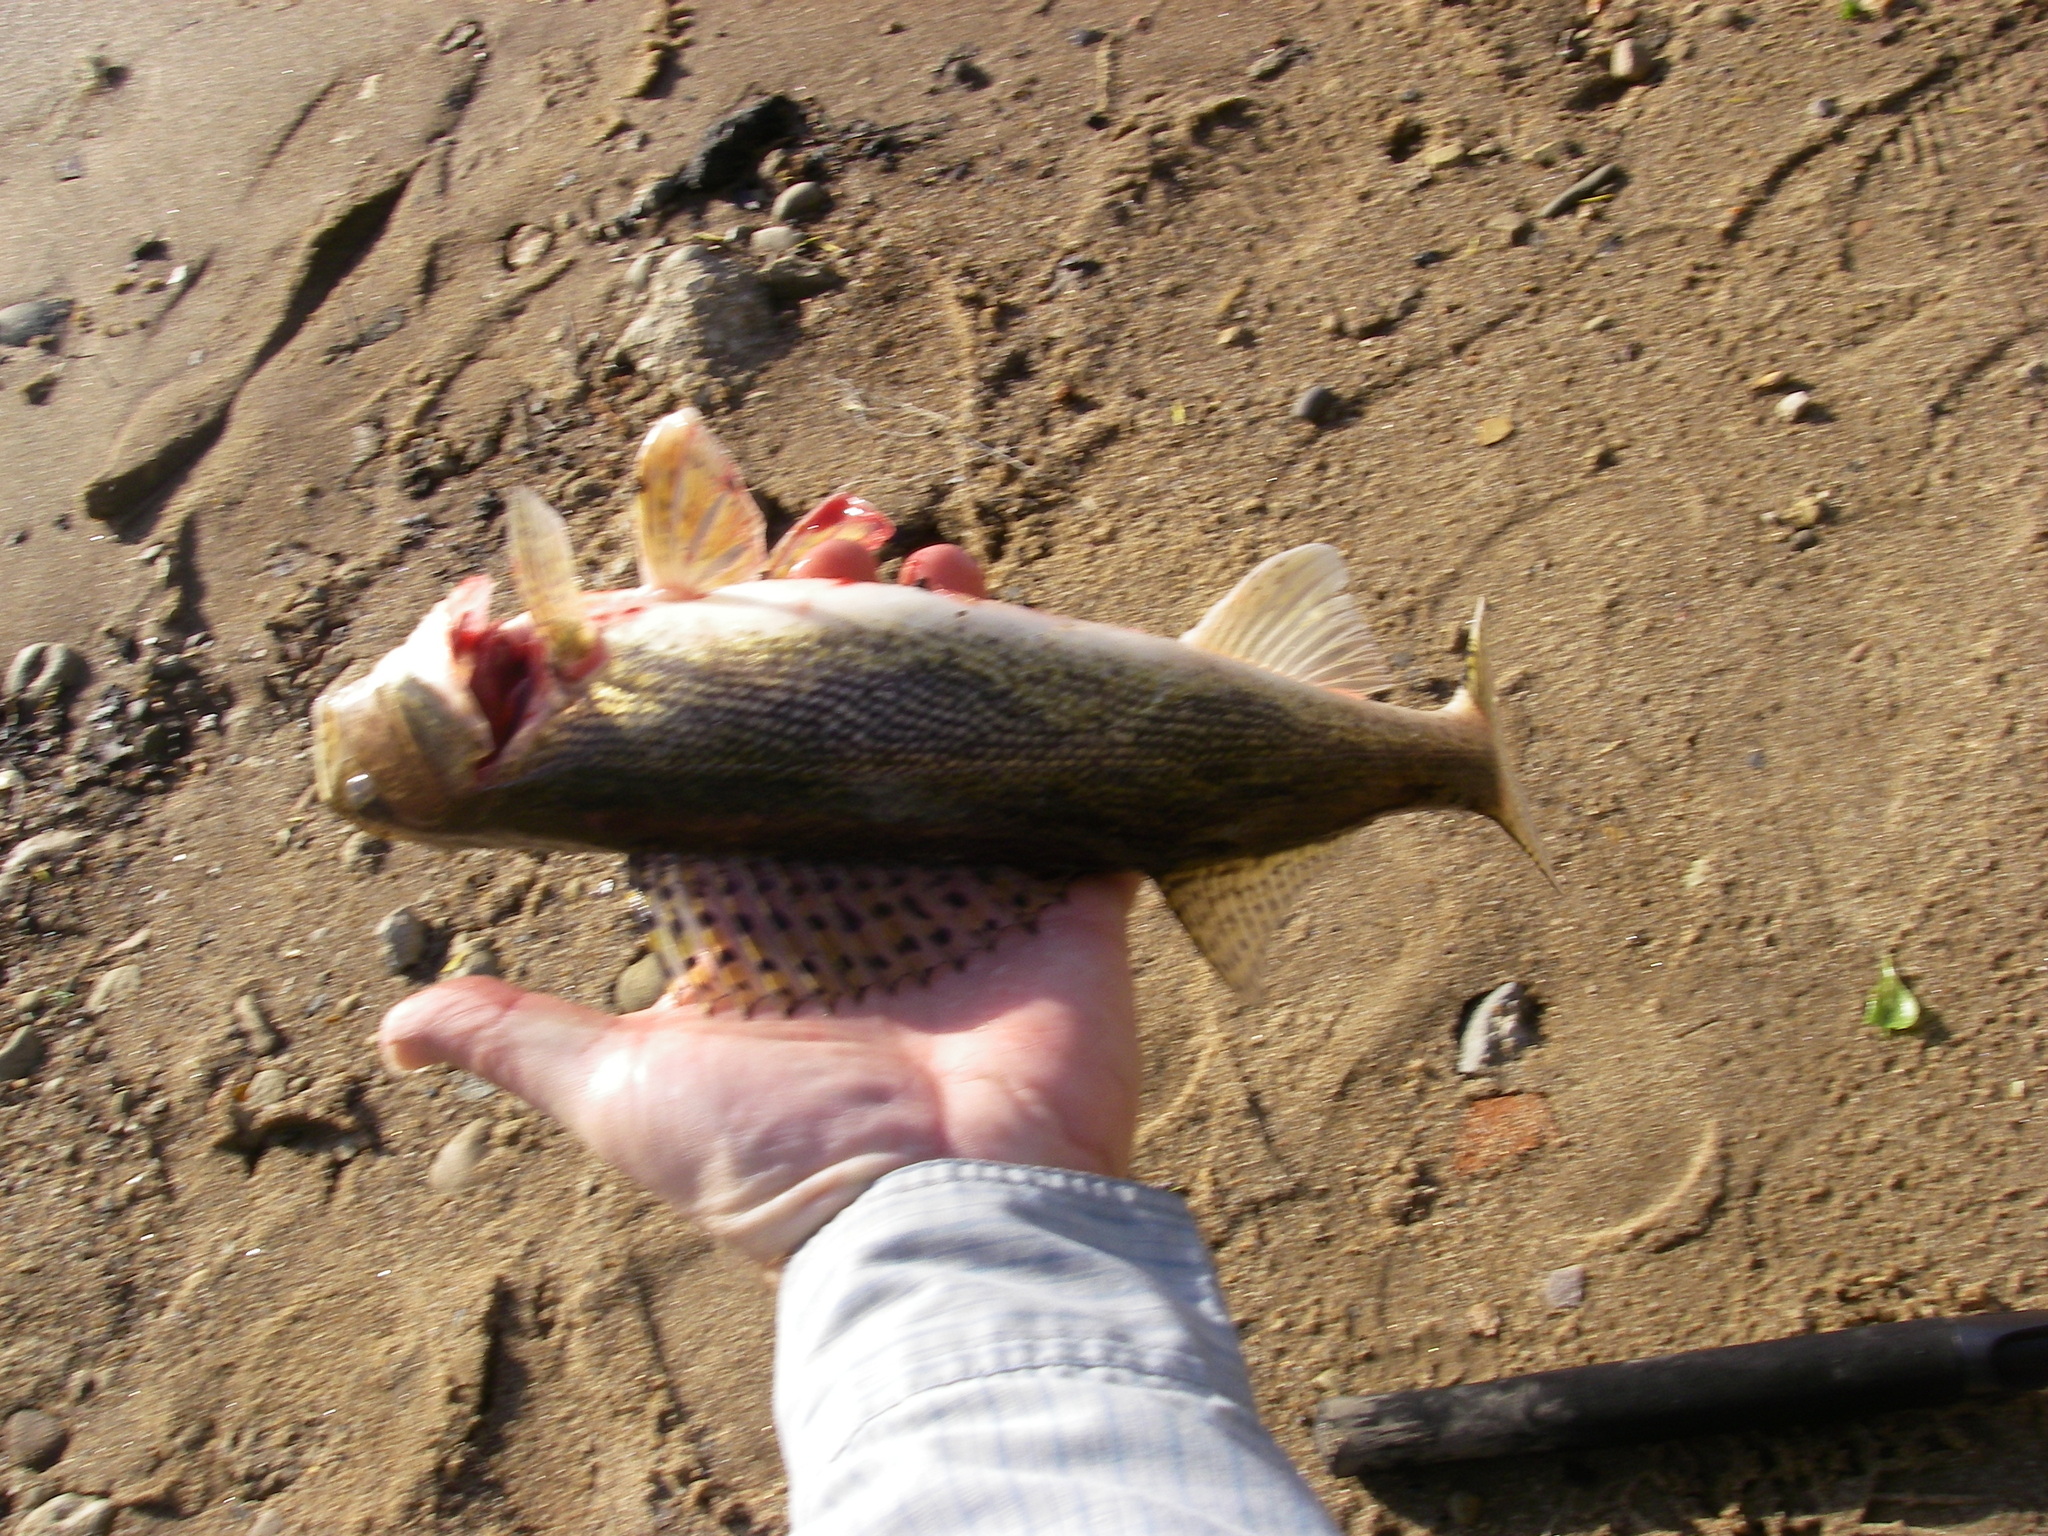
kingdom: Animalia
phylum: Chordata
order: Perciformes
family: Percidae
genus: Sander
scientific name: Sander canadensis
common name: Sauger
